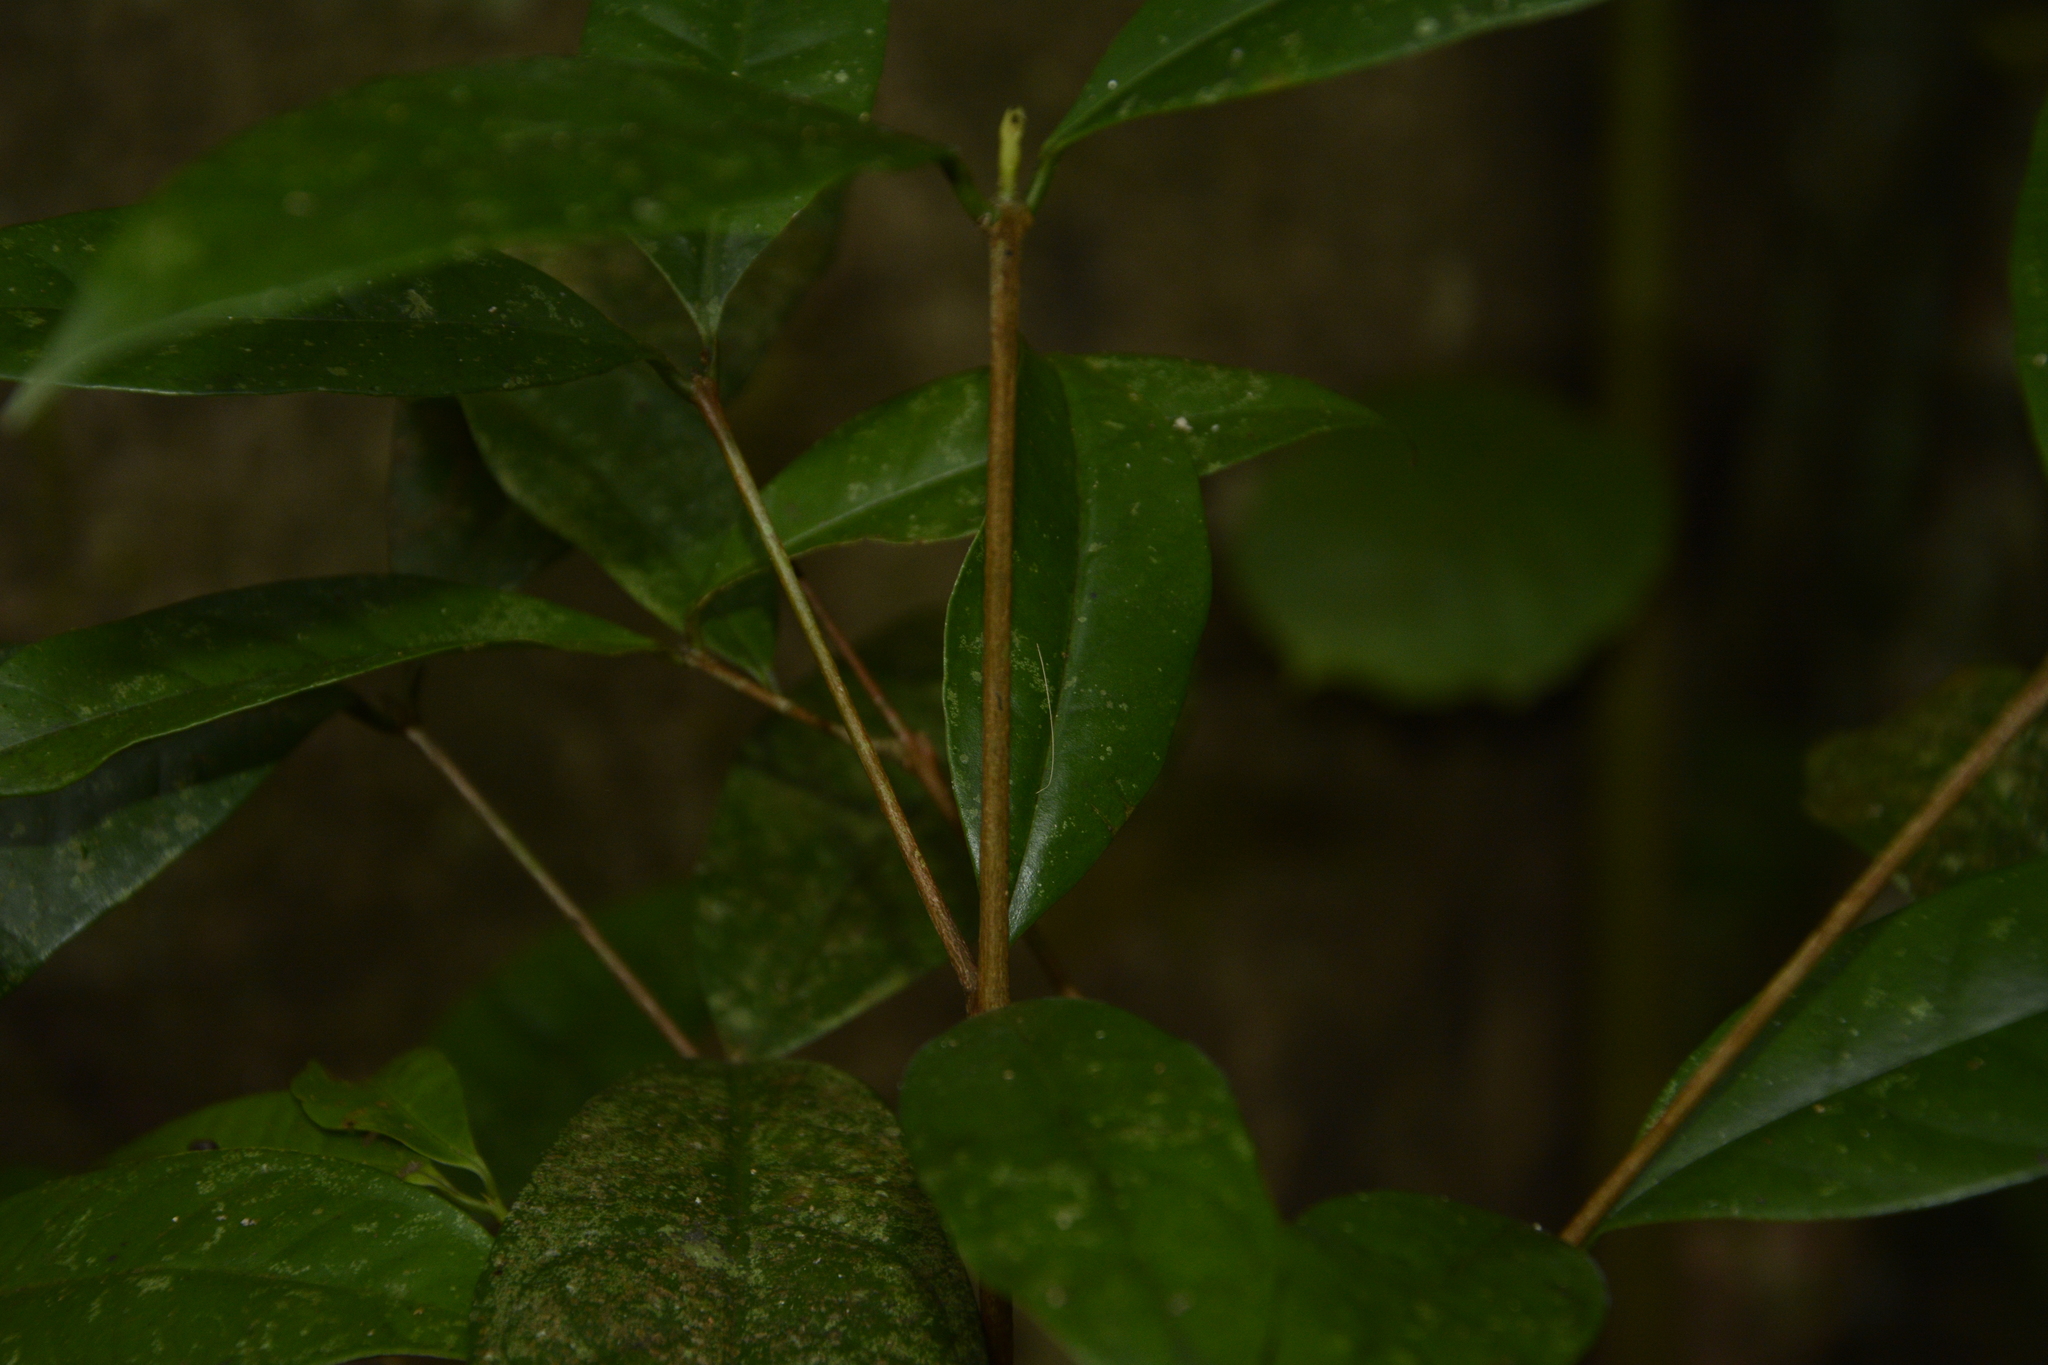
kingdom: Plantae
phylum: Tracheophyta
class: Magnoliopsida
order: Myrtales
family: Myrtaceae
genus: Syzygium
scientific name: Syzygium laetum
